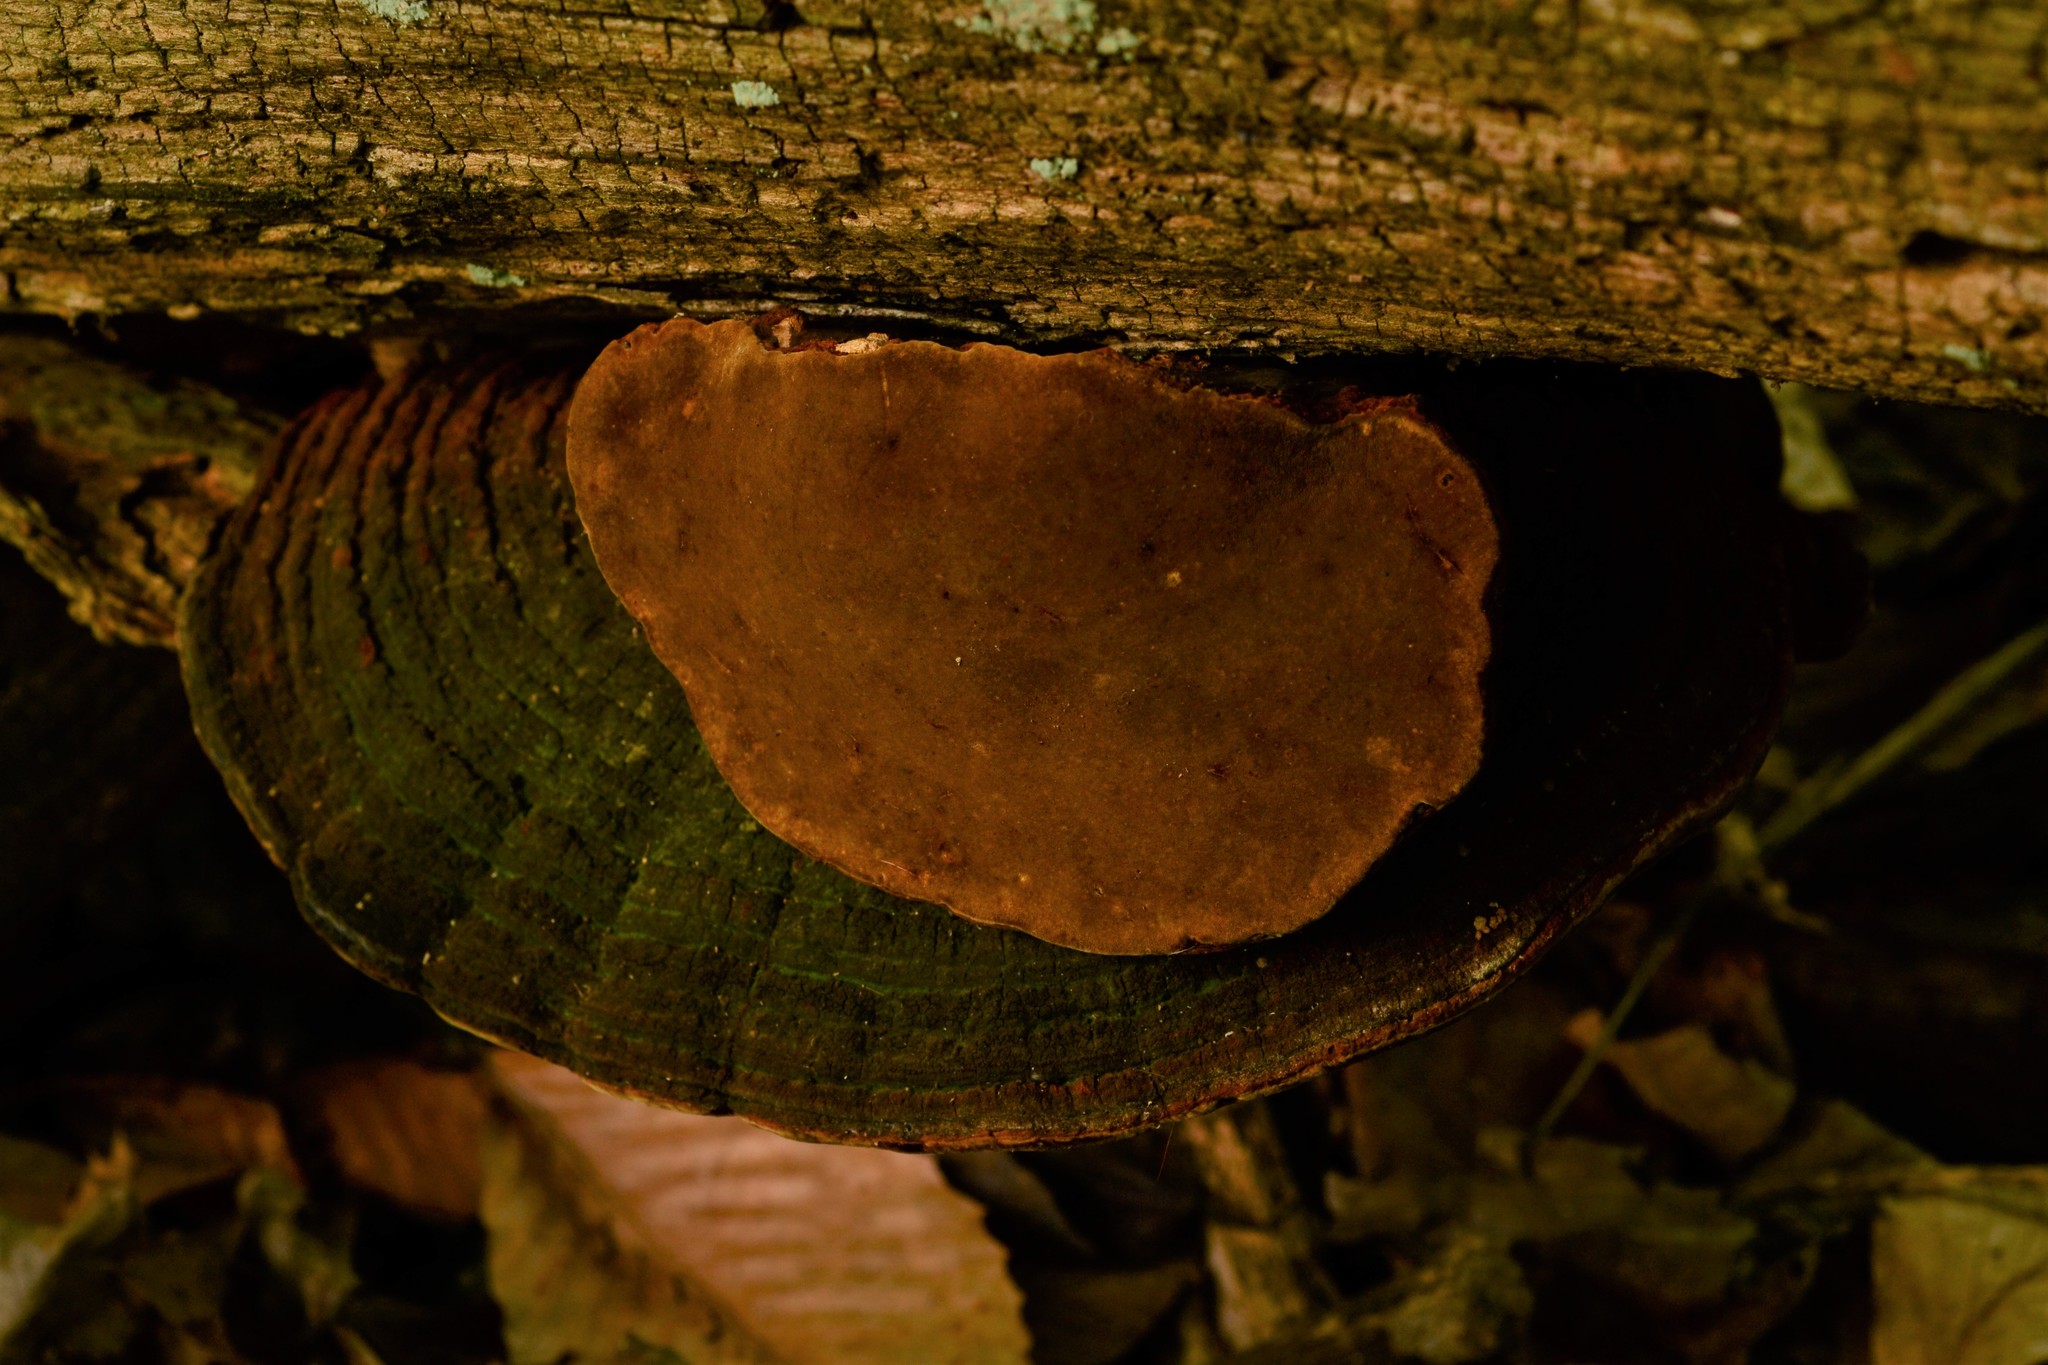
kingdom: Fungi
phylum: Basidiomycota
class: Agaricomycetes
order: Hymenochaetales
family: Hymenochaetaceae
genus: Phellinus
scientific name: Phellinus robiniae
